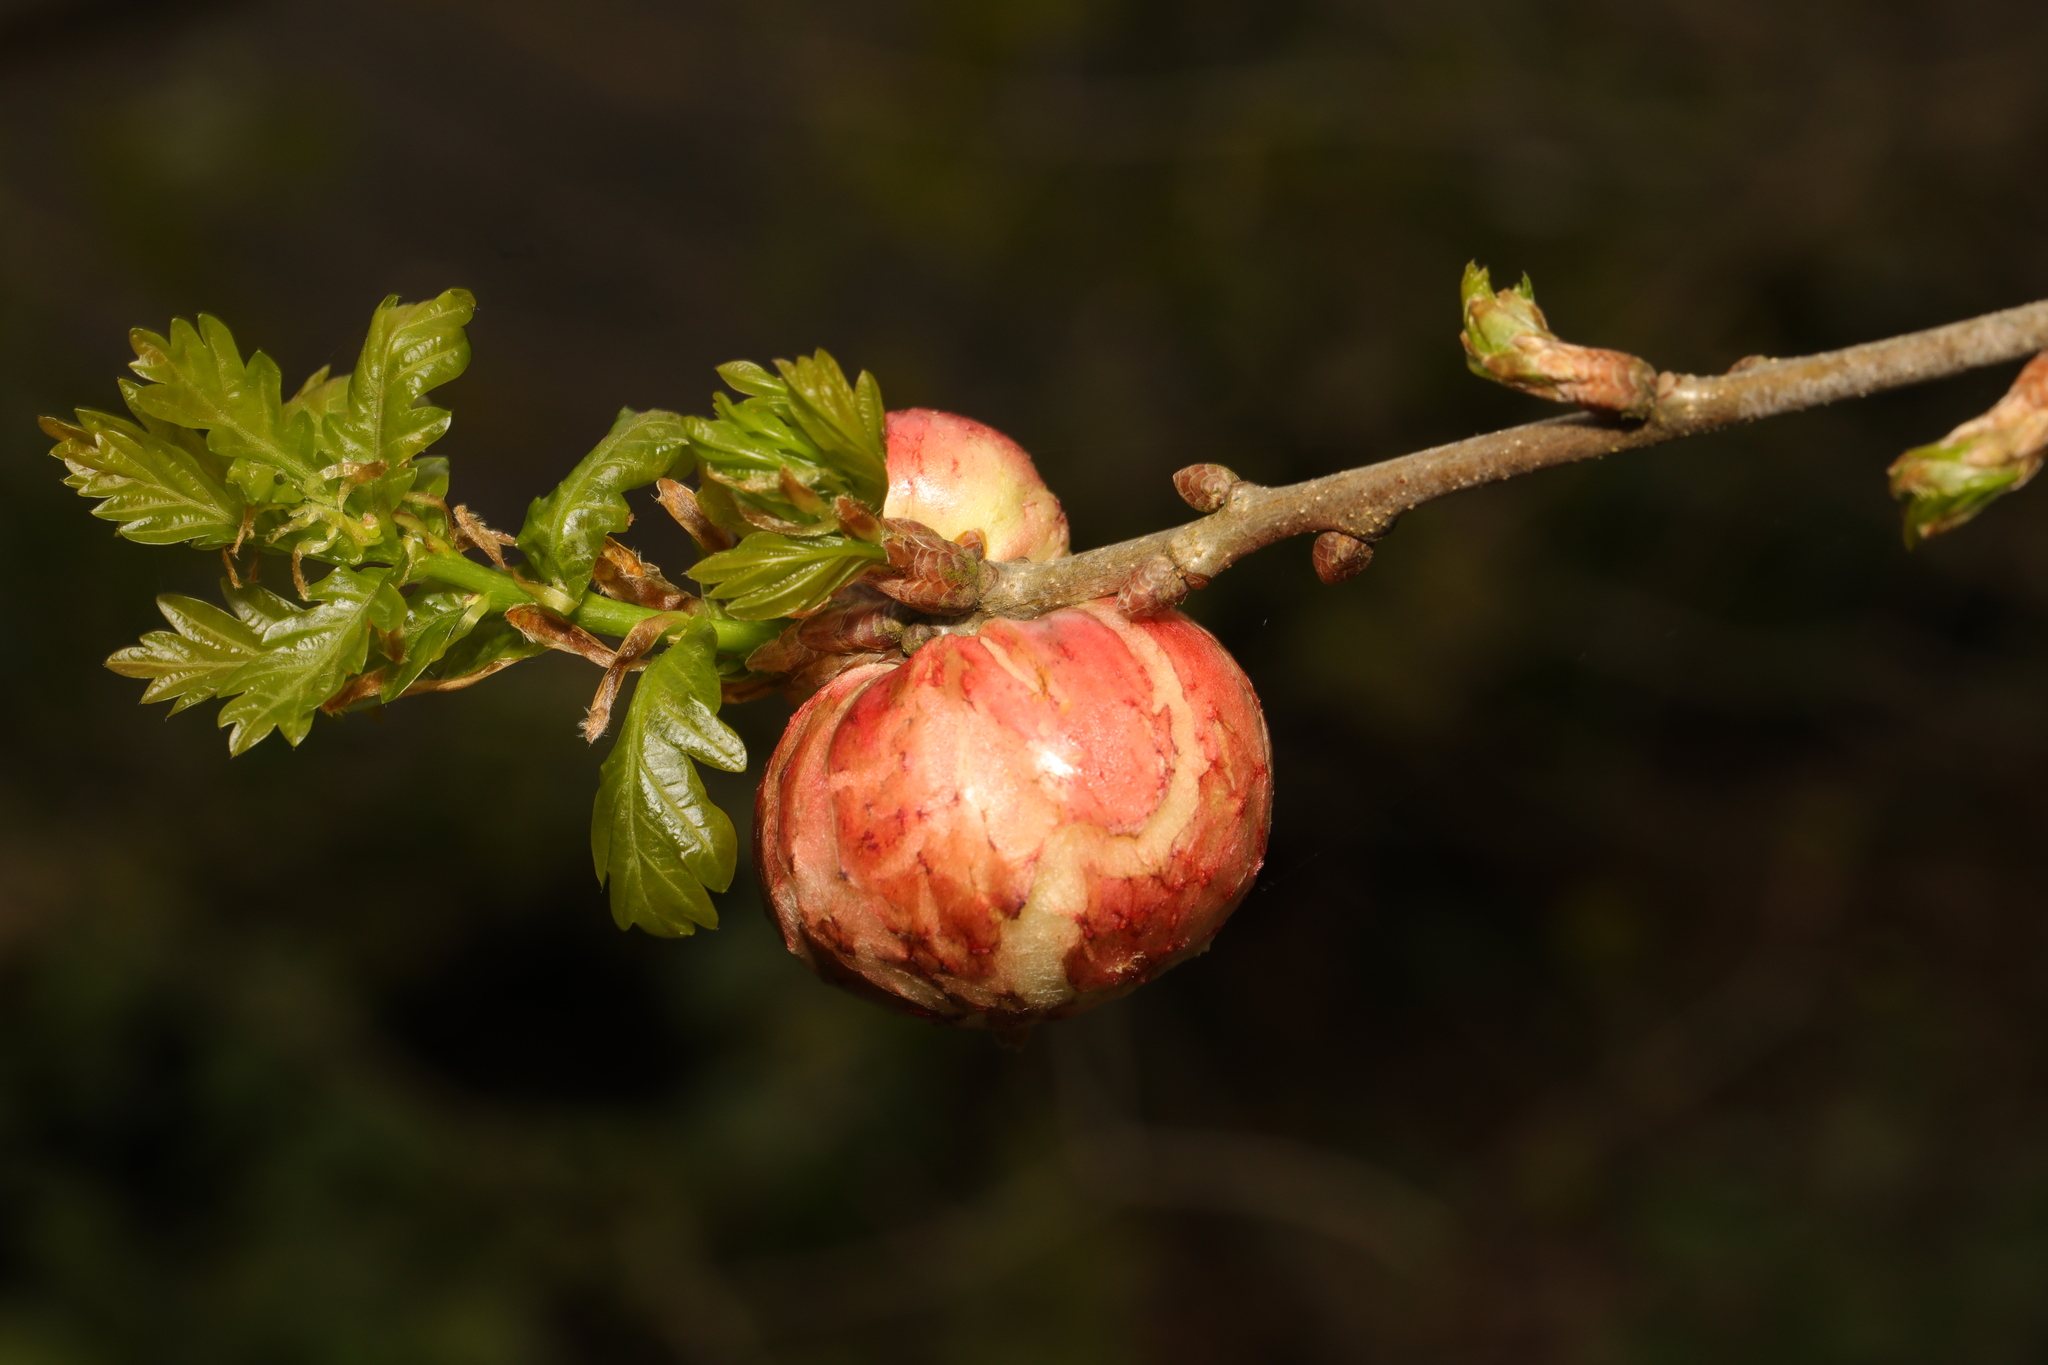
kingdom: Animalia
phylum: Arthropoda
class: Insecta
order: Hymenoptera
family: Cynipidae
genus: Biorhiza
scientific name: Biorhiza pallida
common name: Oak apple
